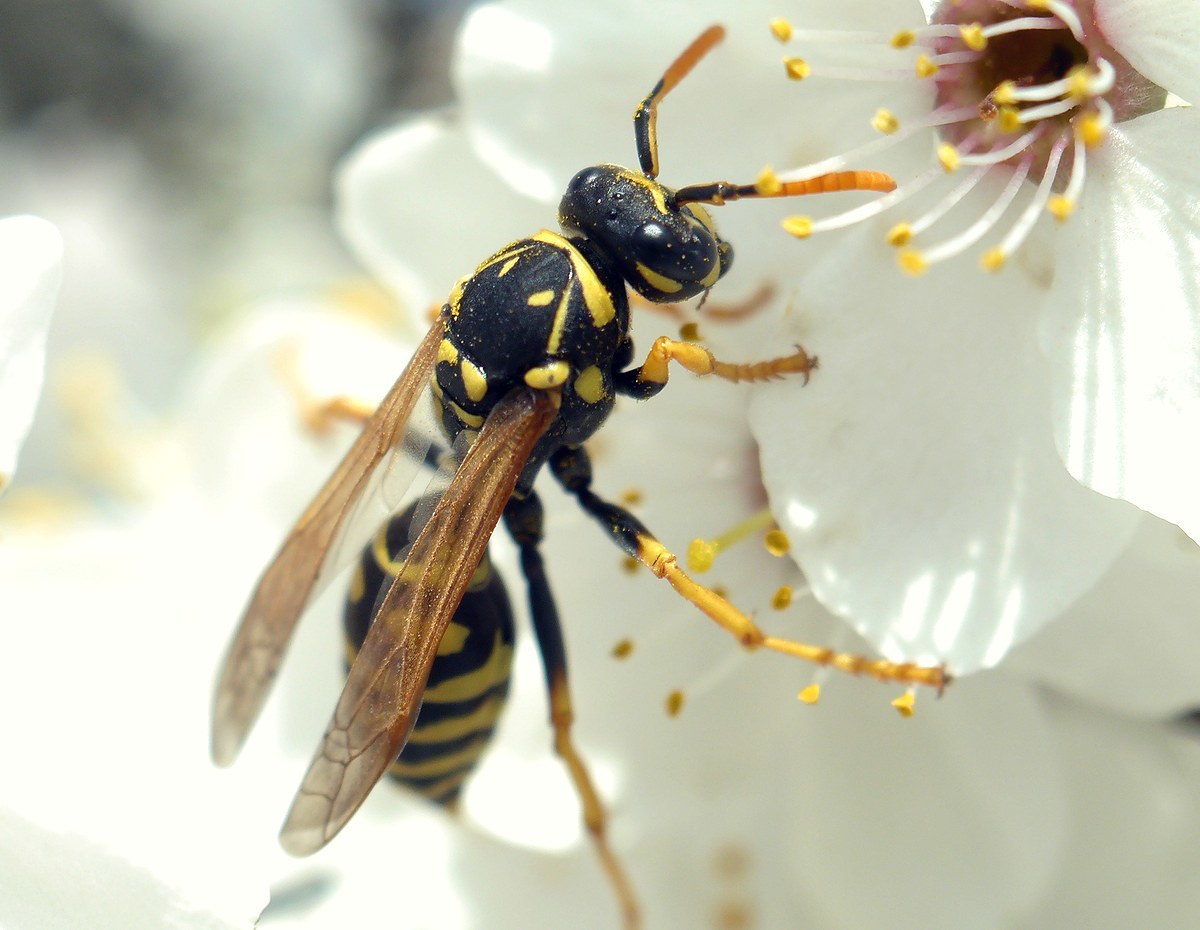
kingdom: Animalia
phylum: Arthropoda
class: Insecta
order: Hymenoptera
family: Eumenidae
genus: Polistes
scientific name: Polistes dominula
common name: Paper wasp
